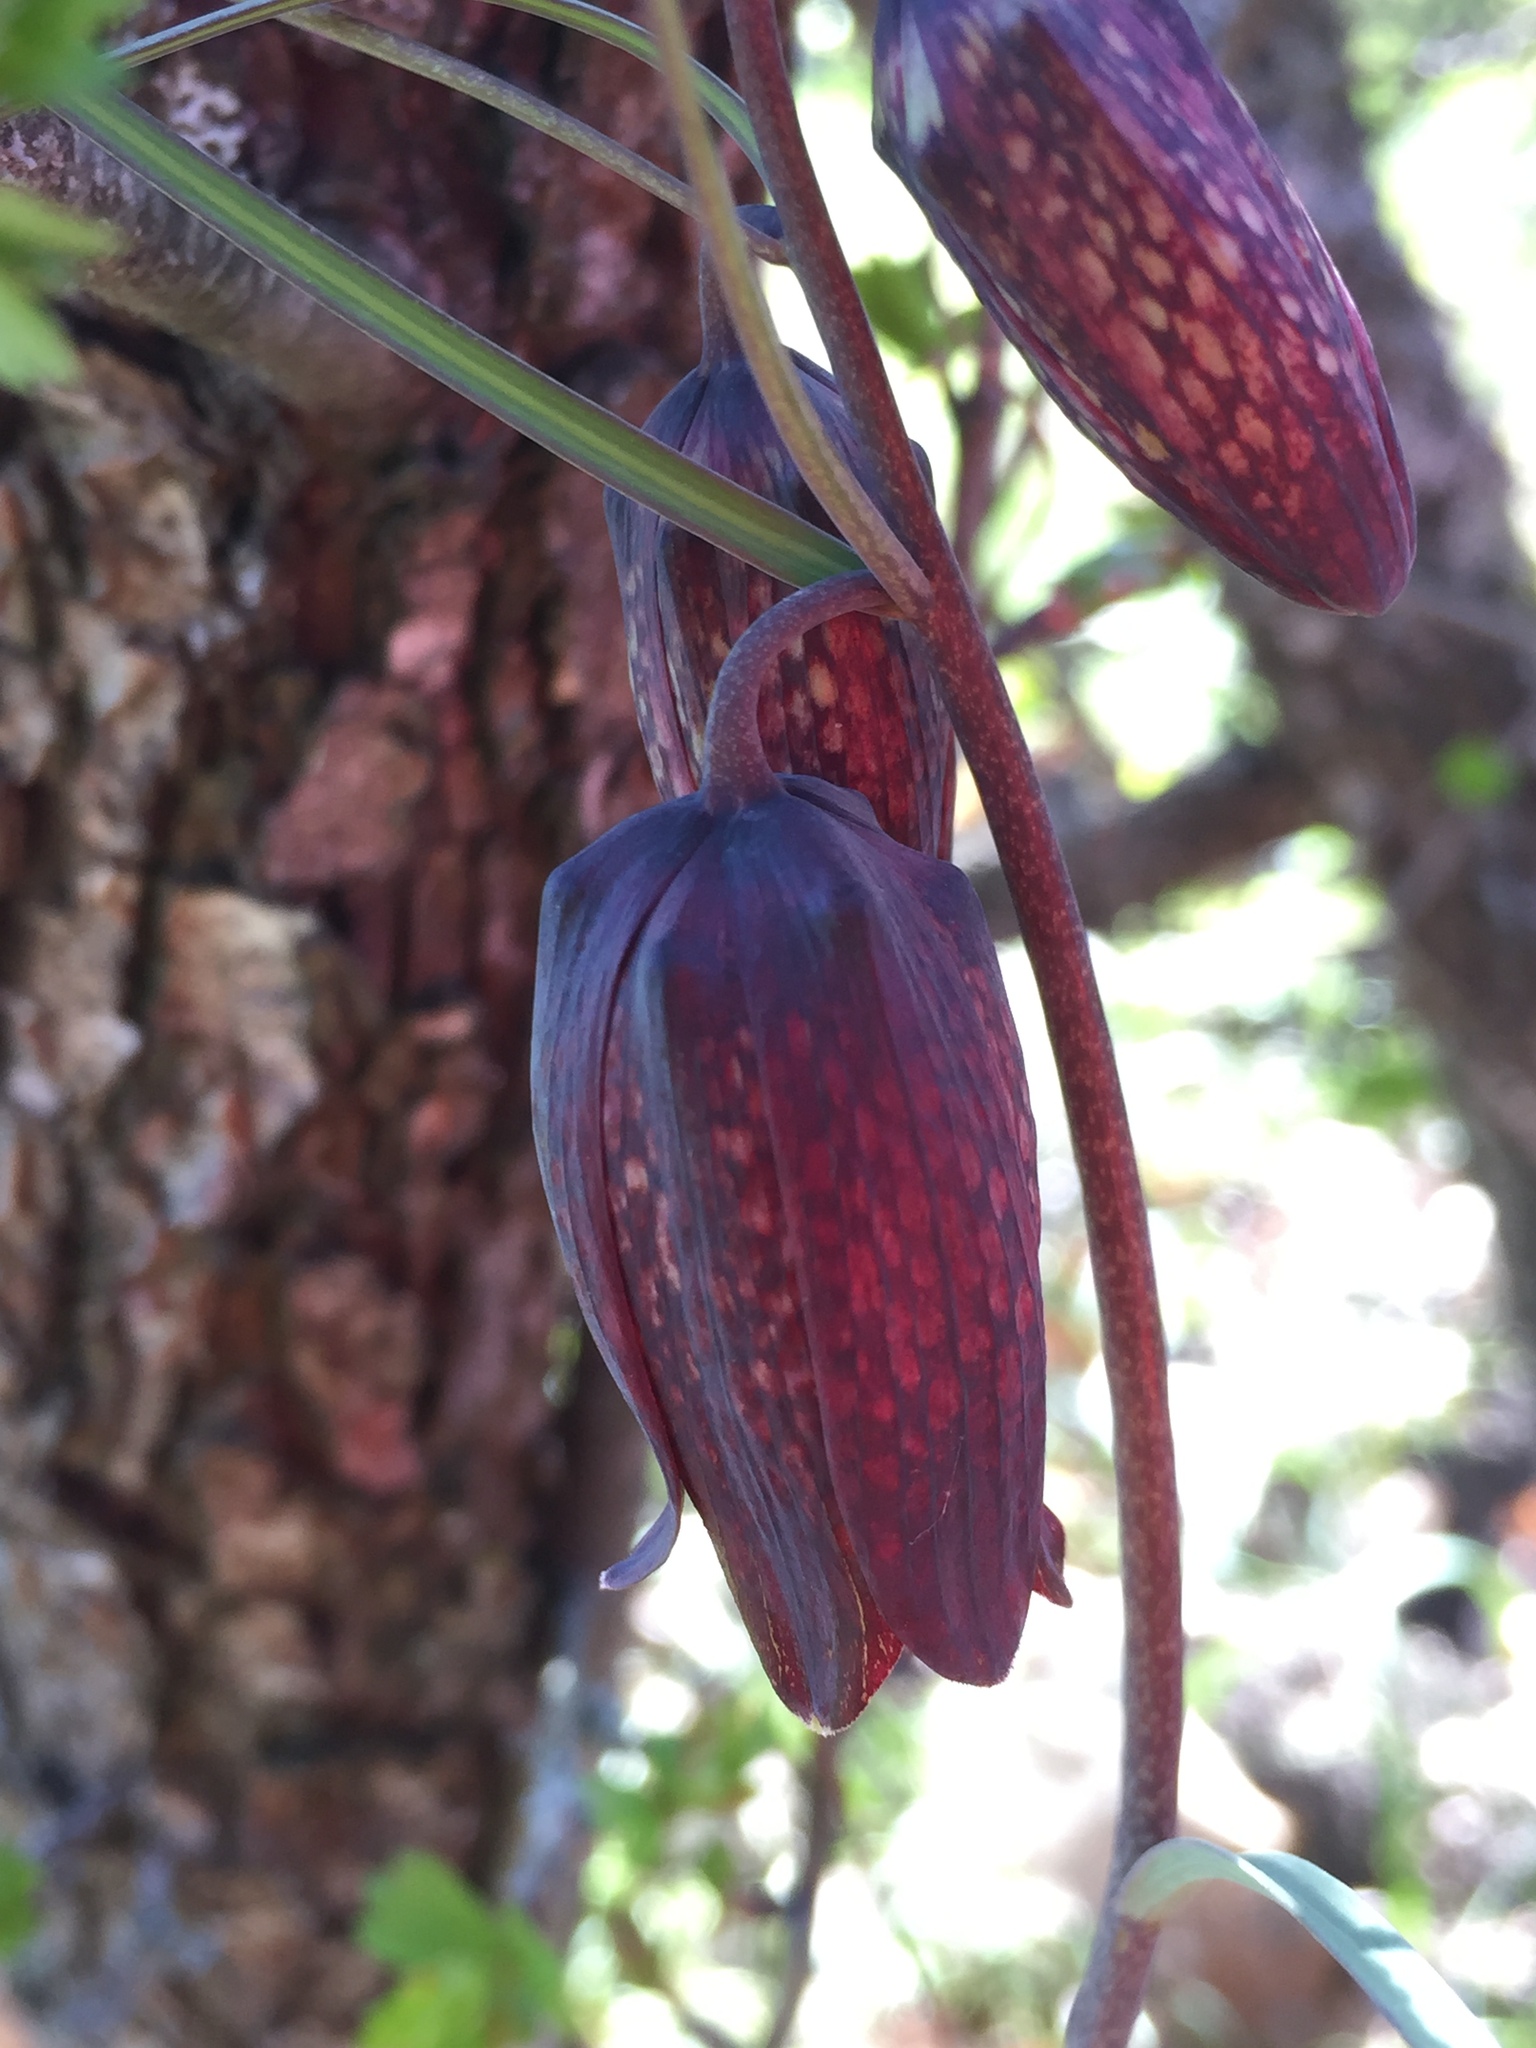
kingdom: Plantae
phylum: Tracheophyta
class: Liliopsida
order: Liliales
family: Liliaceae
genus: Fritillaria
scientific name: Fritillaria ruthenica
